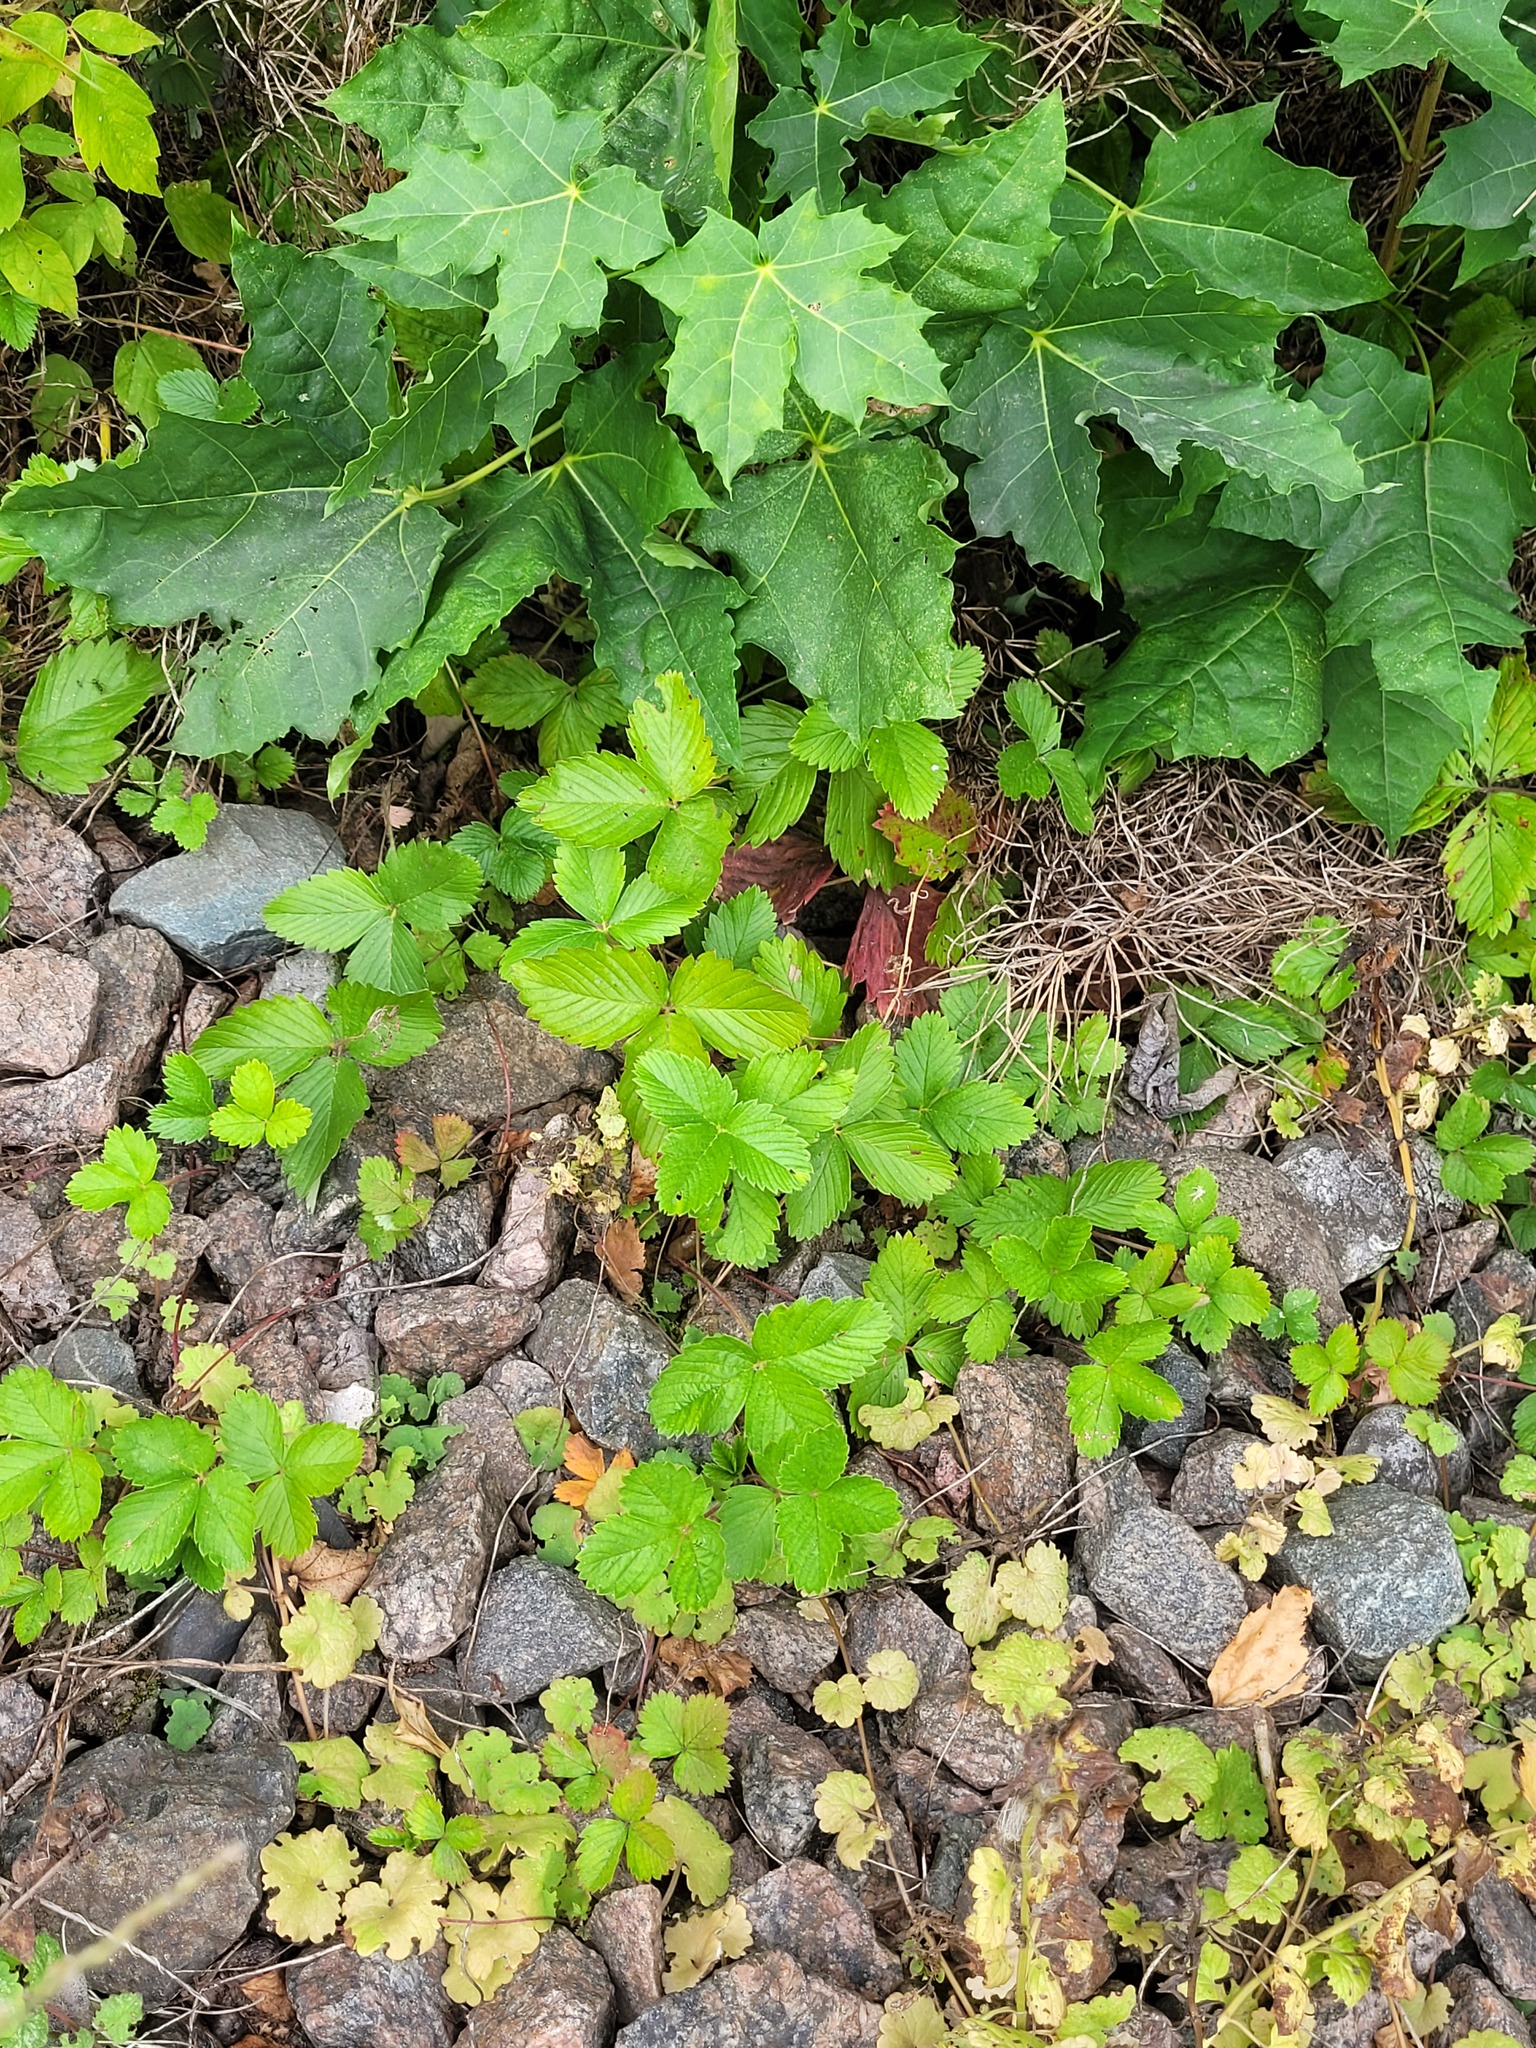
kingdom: Plantae
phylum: Tracheophyta
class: Magnoliopsida
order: Rosales
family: Rosaceae
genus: Fragaria
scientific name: Fragaria viridis
